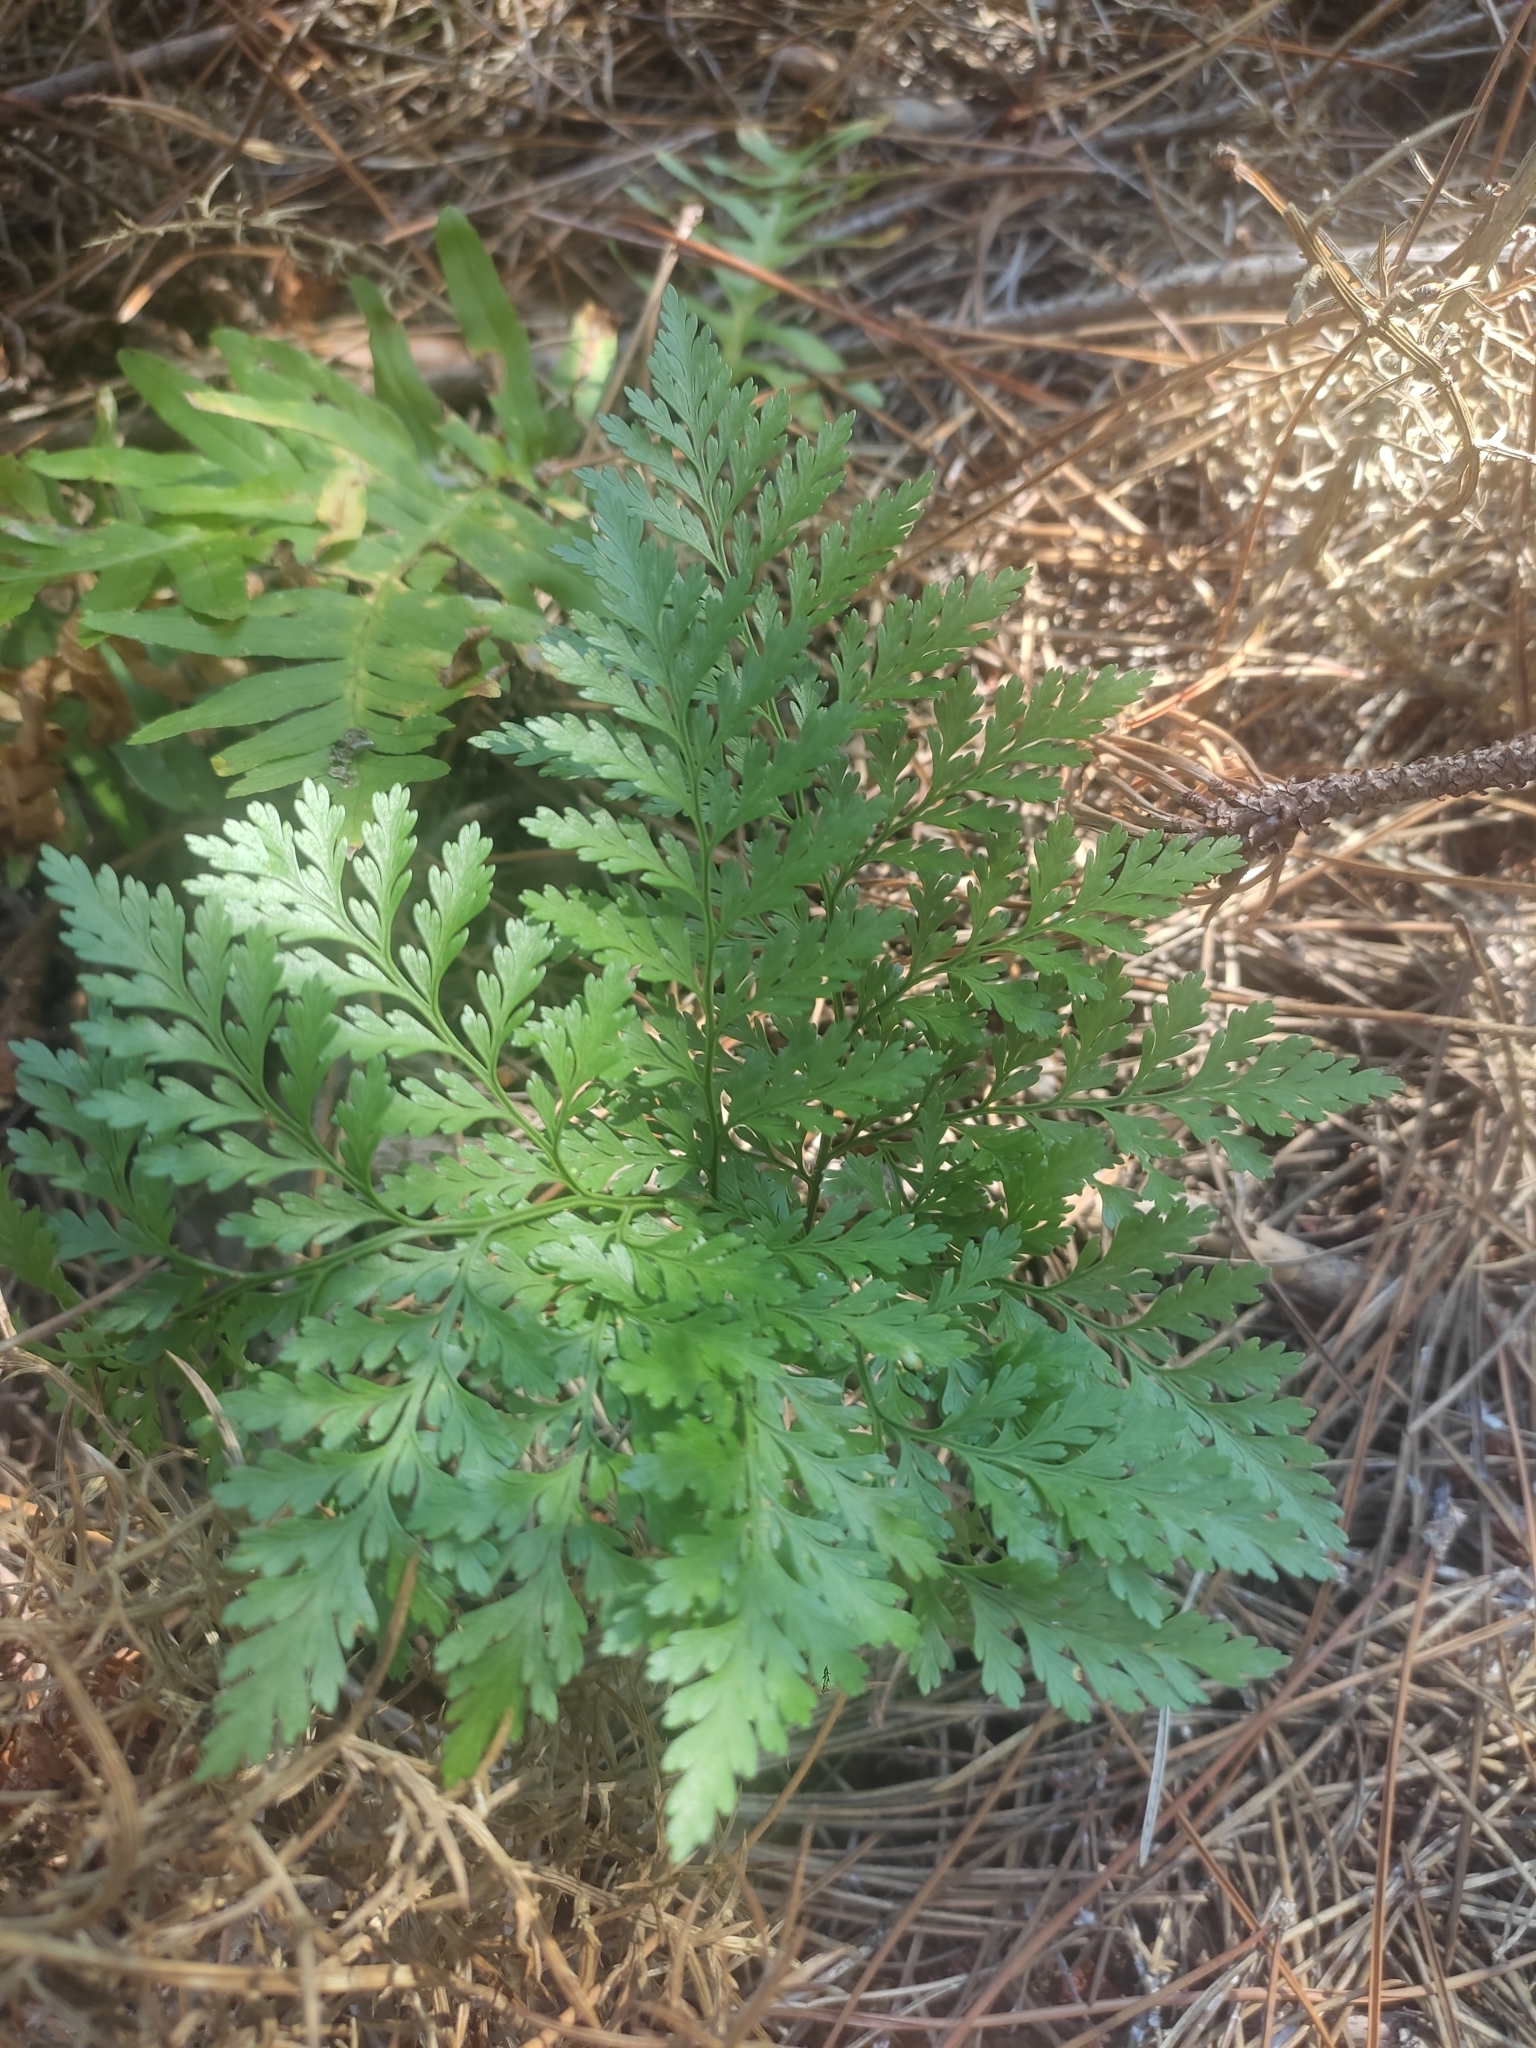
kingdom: Plantae
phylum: Tracheophyta
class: Polypodiopsida
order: Polypodiales
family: Davalliaceae
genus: Davallia
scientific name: Davallia canariensis
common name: Hare's-foot fern
